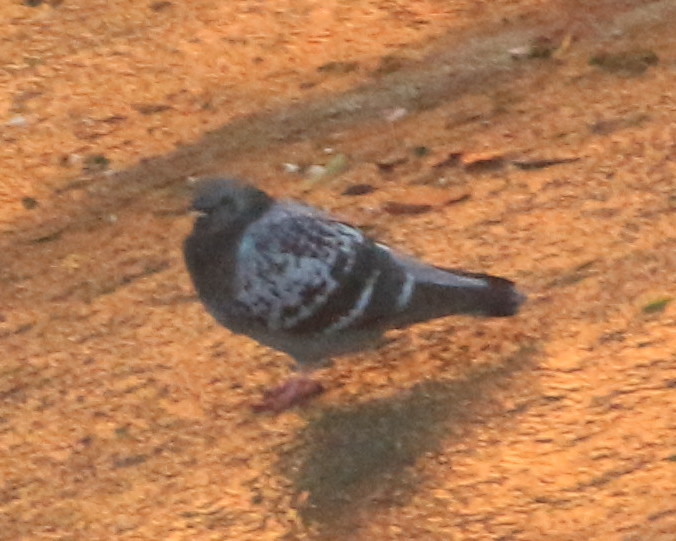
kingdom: Animalia
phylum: Chordata
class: Aves
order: Columbiformes
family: Columbidae
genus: Columba
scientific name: Columba livia
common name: Rock pigeon
